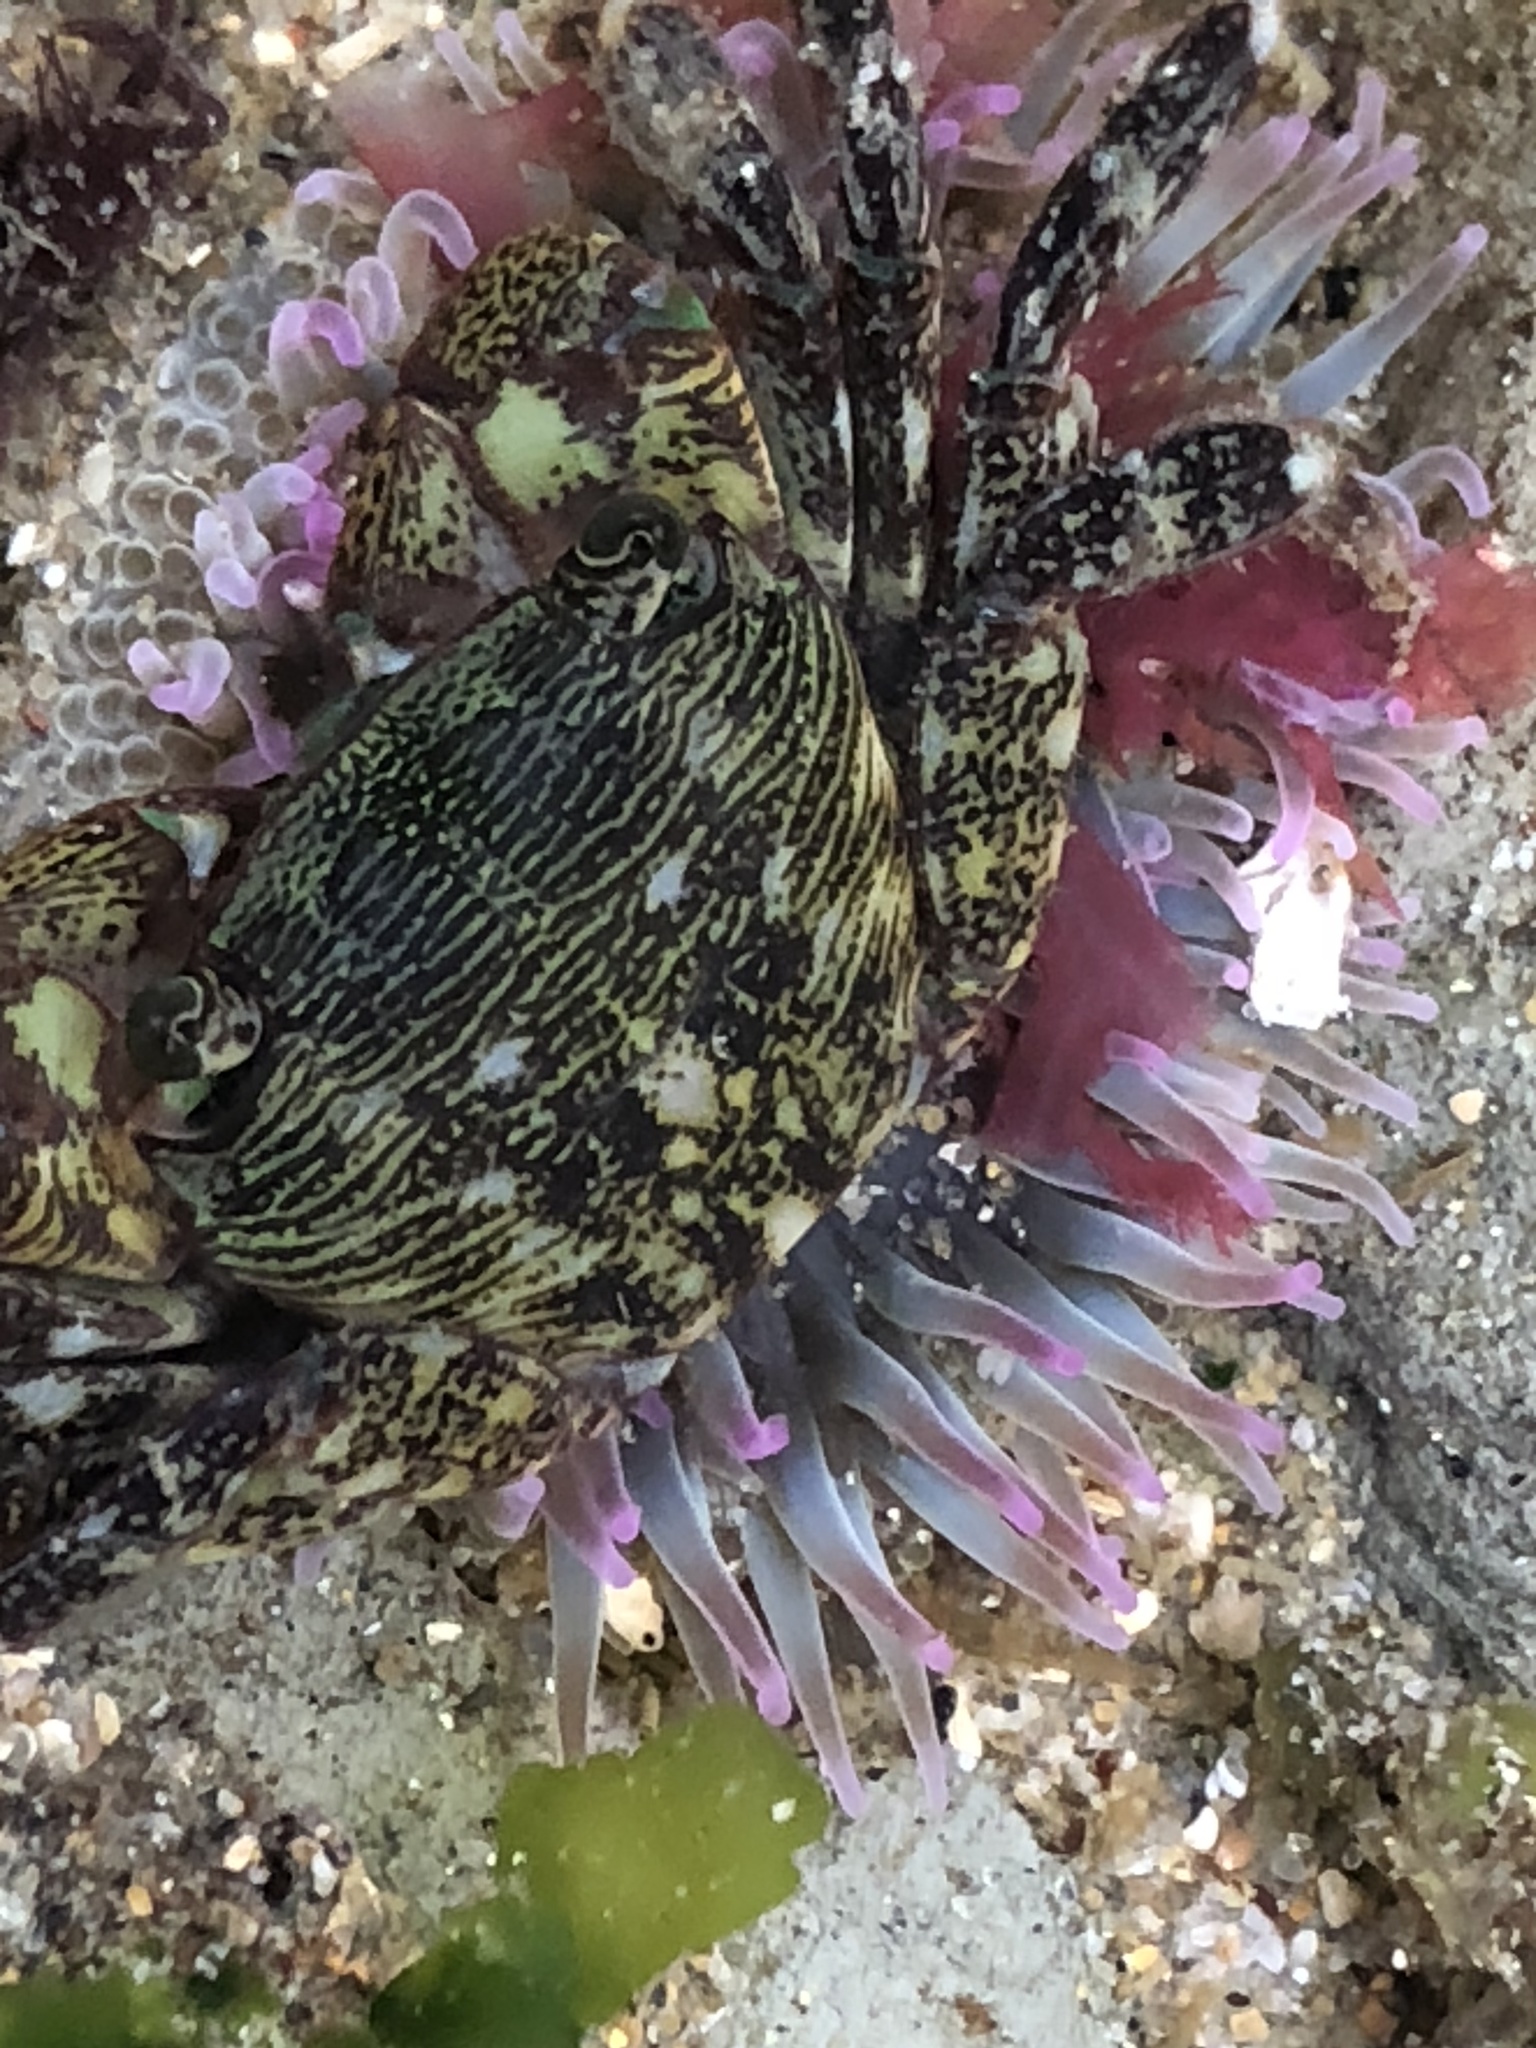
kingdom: Animalia
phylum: Arthropoda
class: Malacostraca
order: Decapoda
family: Grapsidae
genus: Pachygrapsus
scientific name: Pachygrapsus crassipes
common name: Striped shore crab
